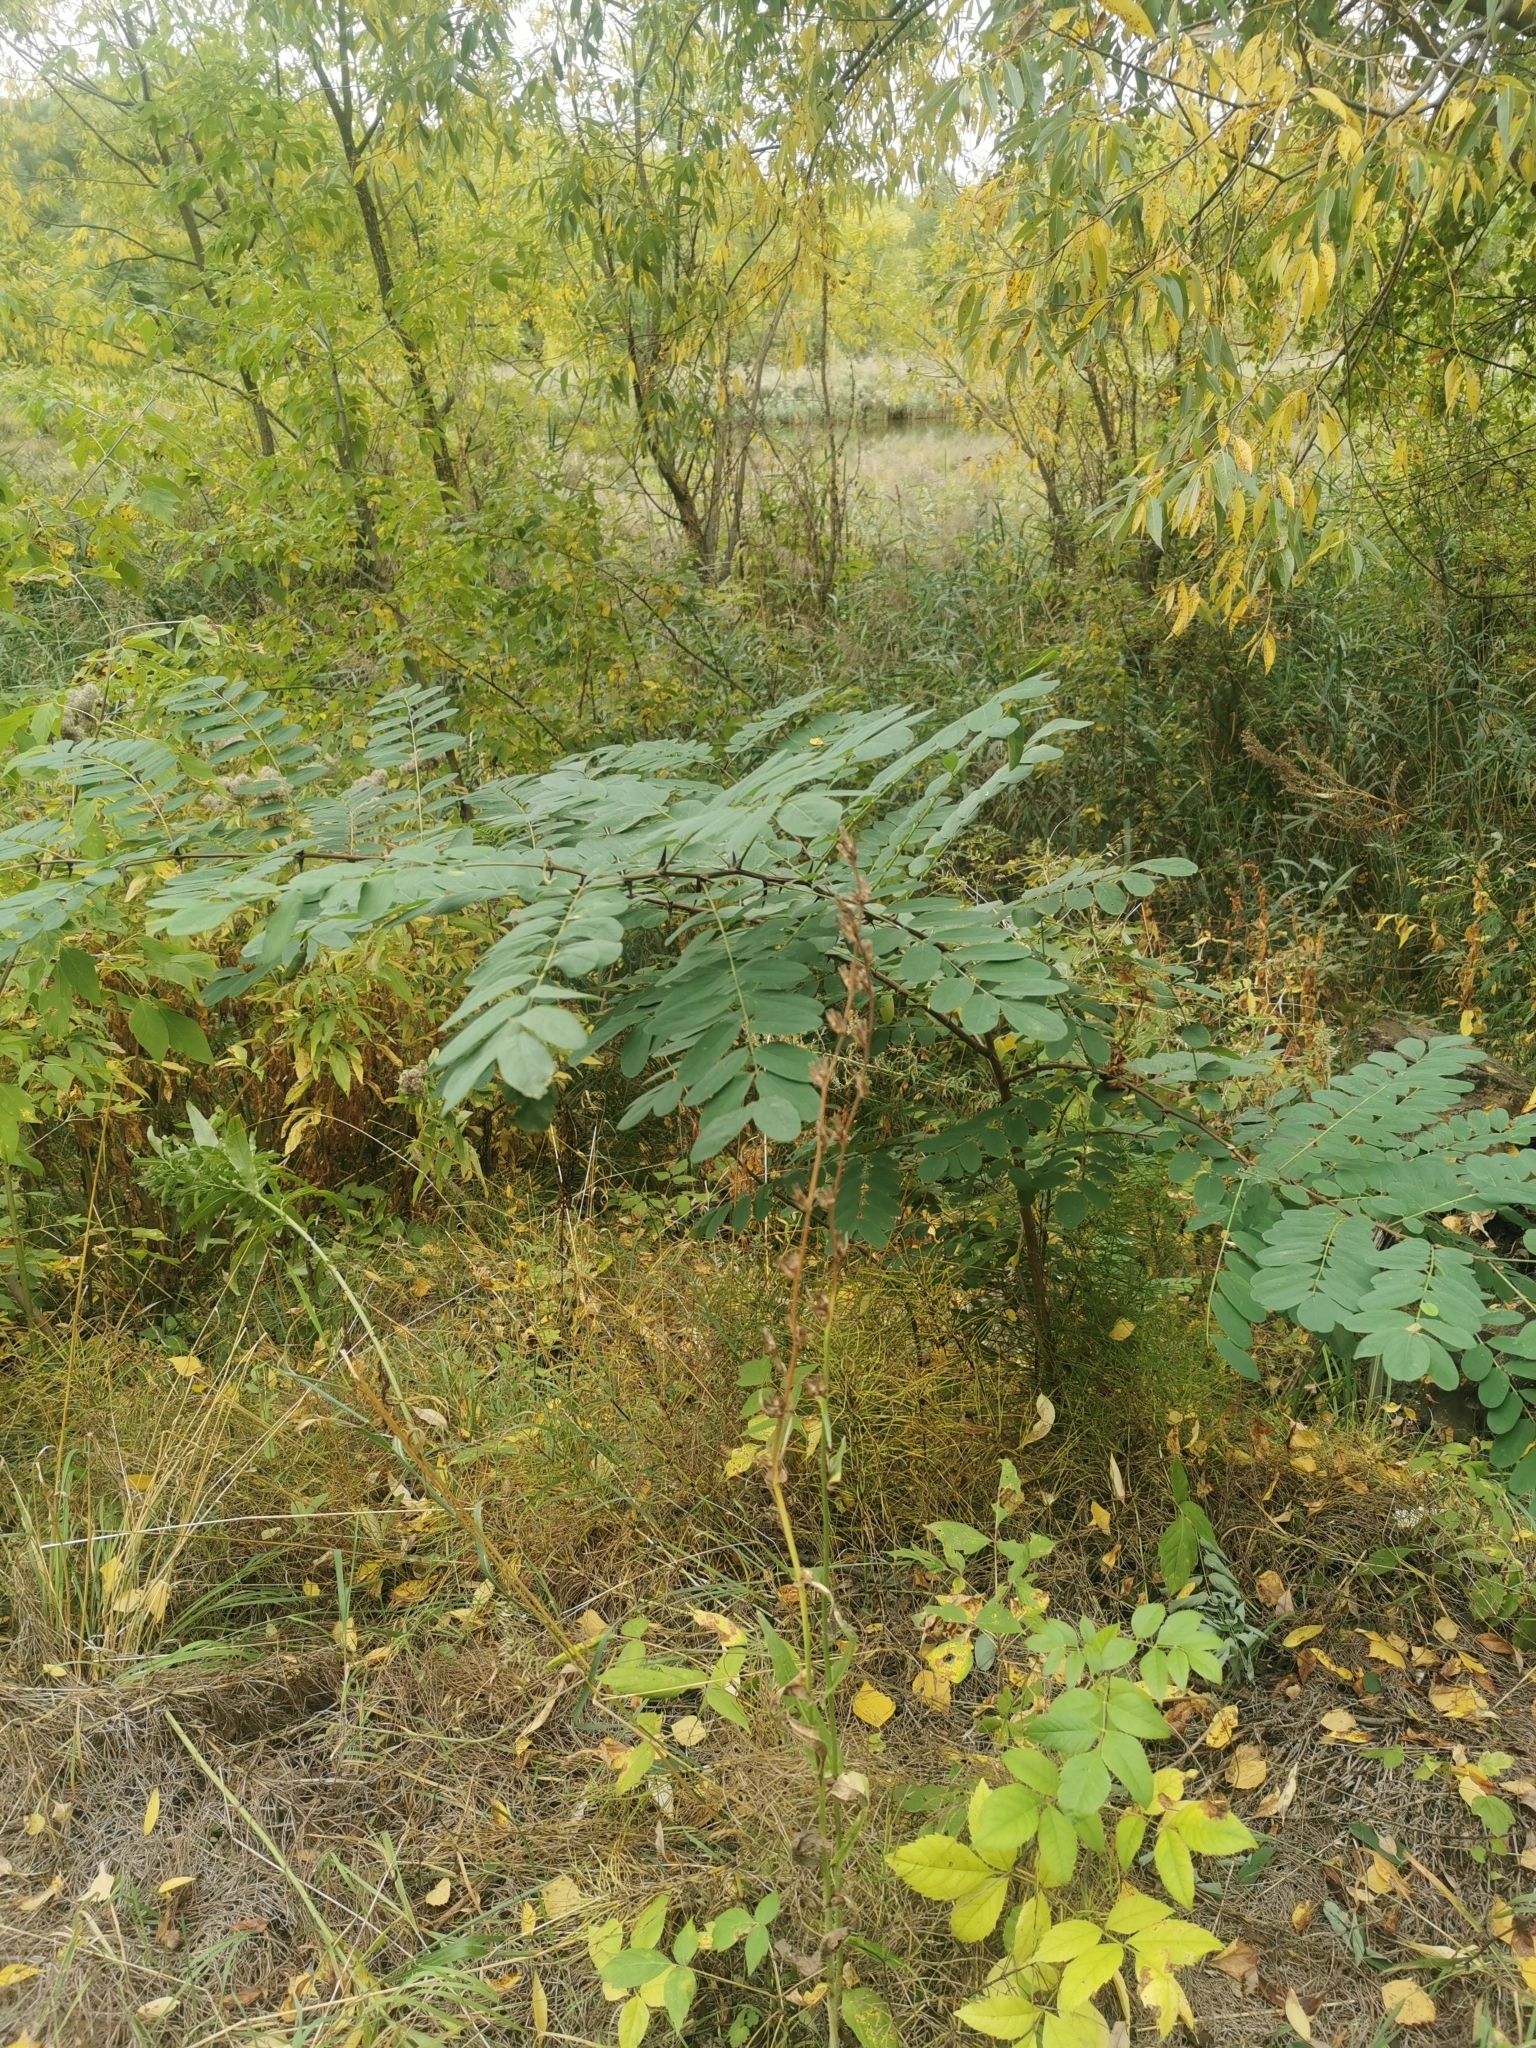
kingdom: Plantae
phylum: Tracheophyta
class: Magnoliopsida
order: Fabales
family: Fabaceae
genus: Robinia
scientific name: Robinia pseudoacacia
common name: Black locust
